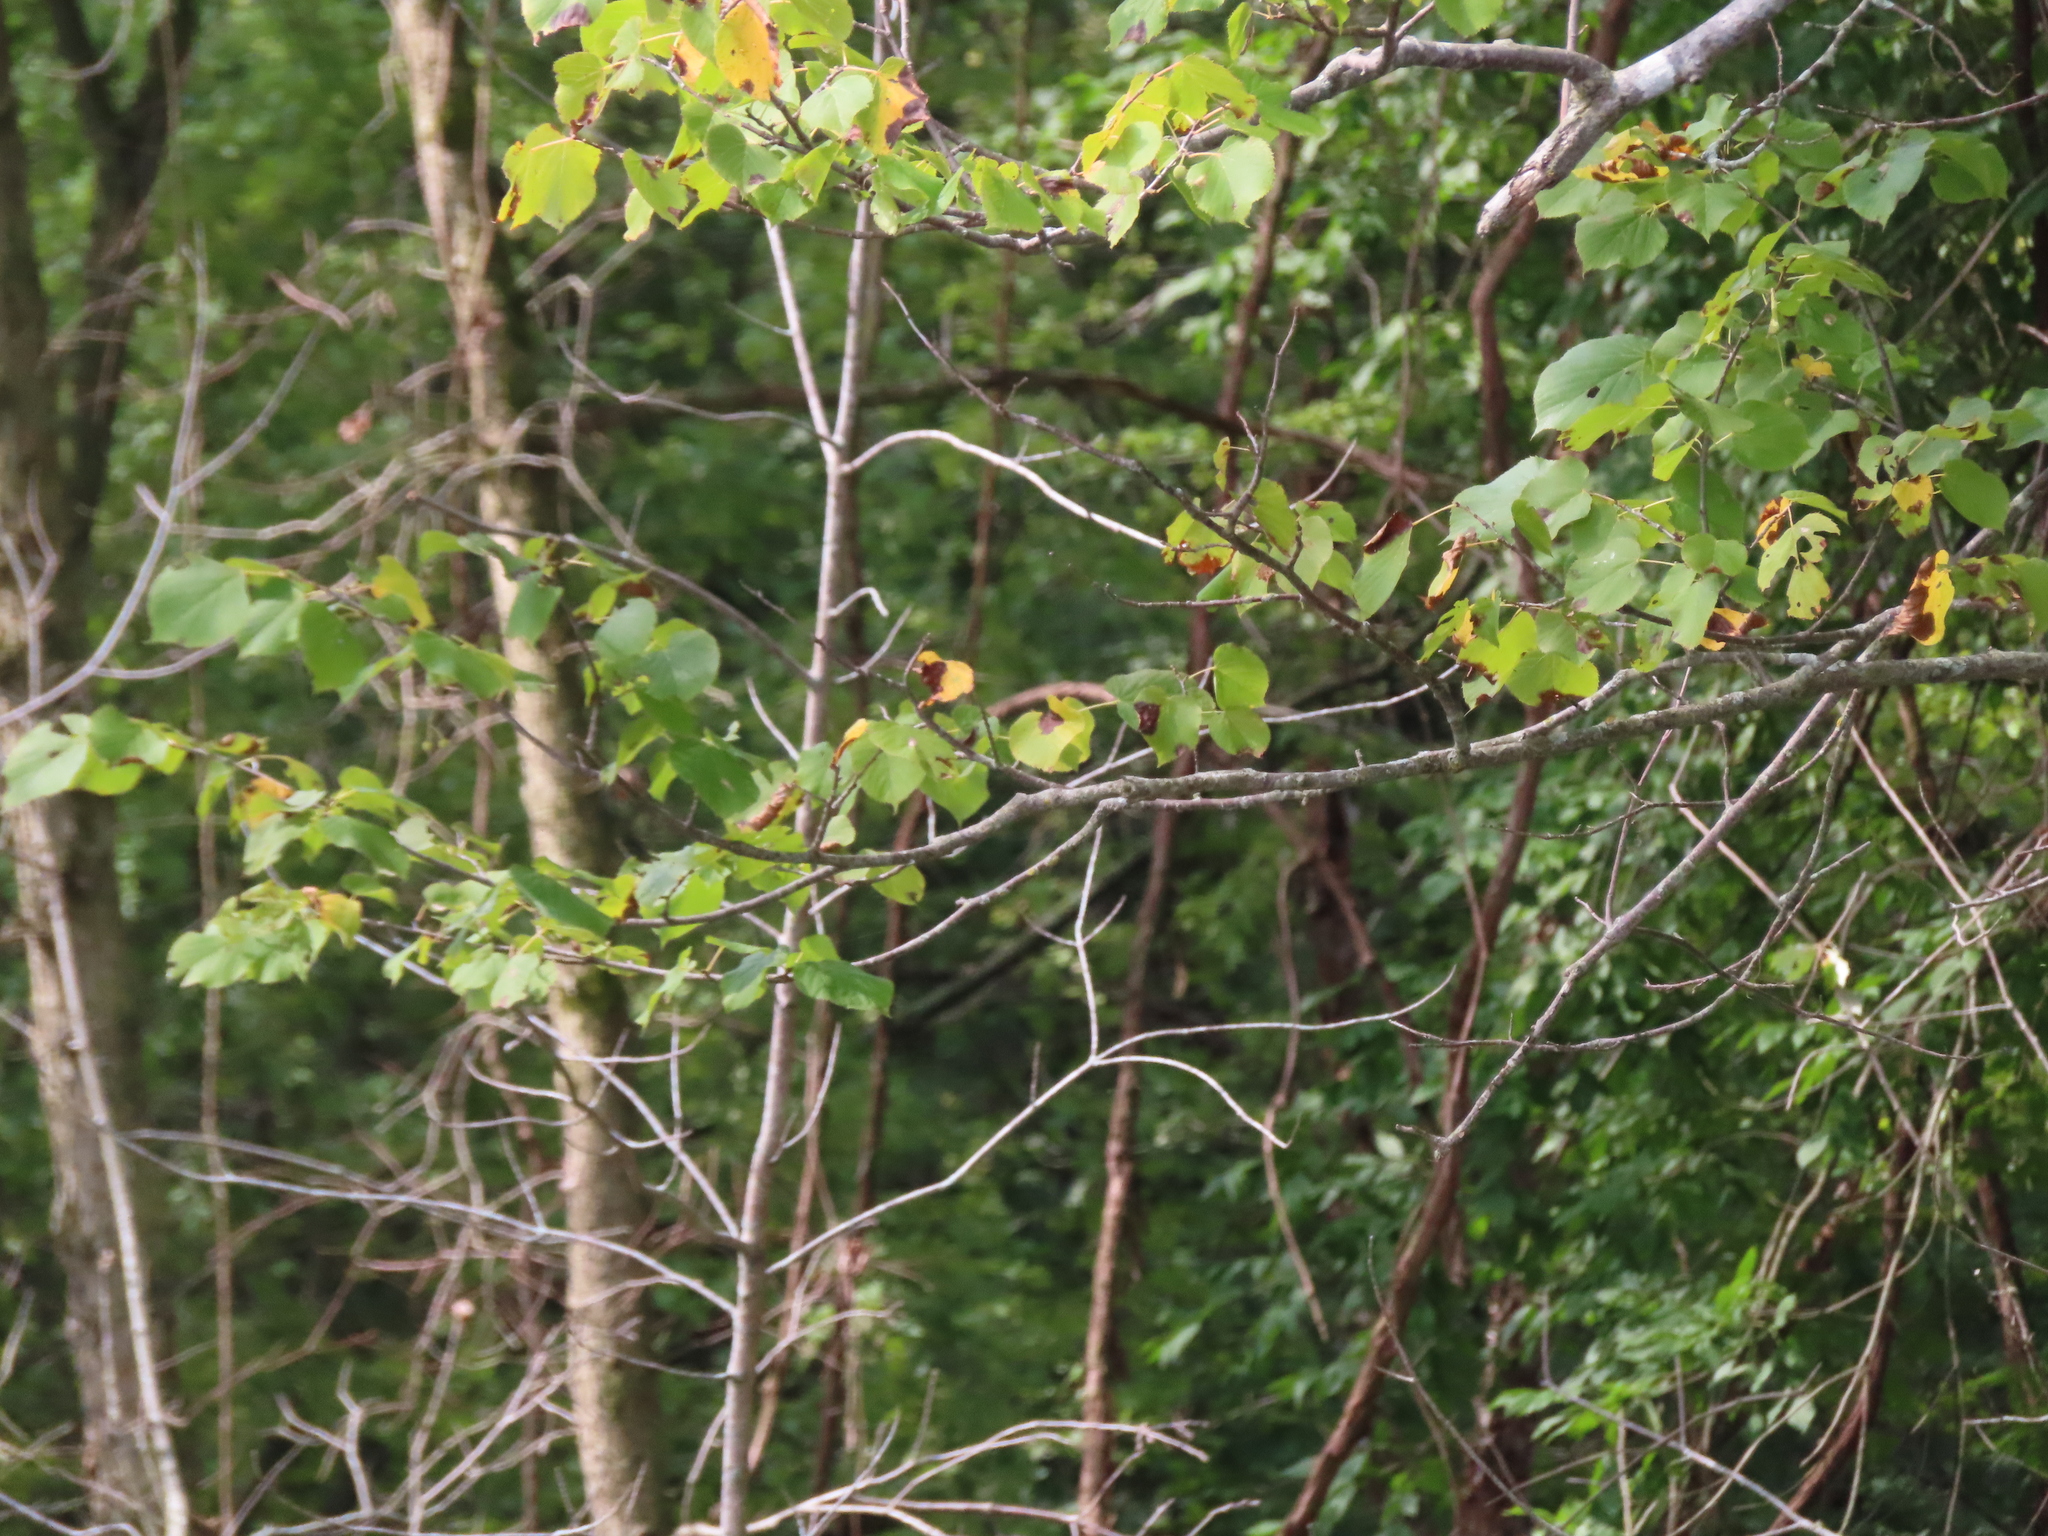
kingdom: Plantae
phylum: Tracheophyta
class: Magnoliopsida
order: Malvales
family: Malvaceae
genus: Tilia
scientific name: Tilia americana
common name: Basswood
